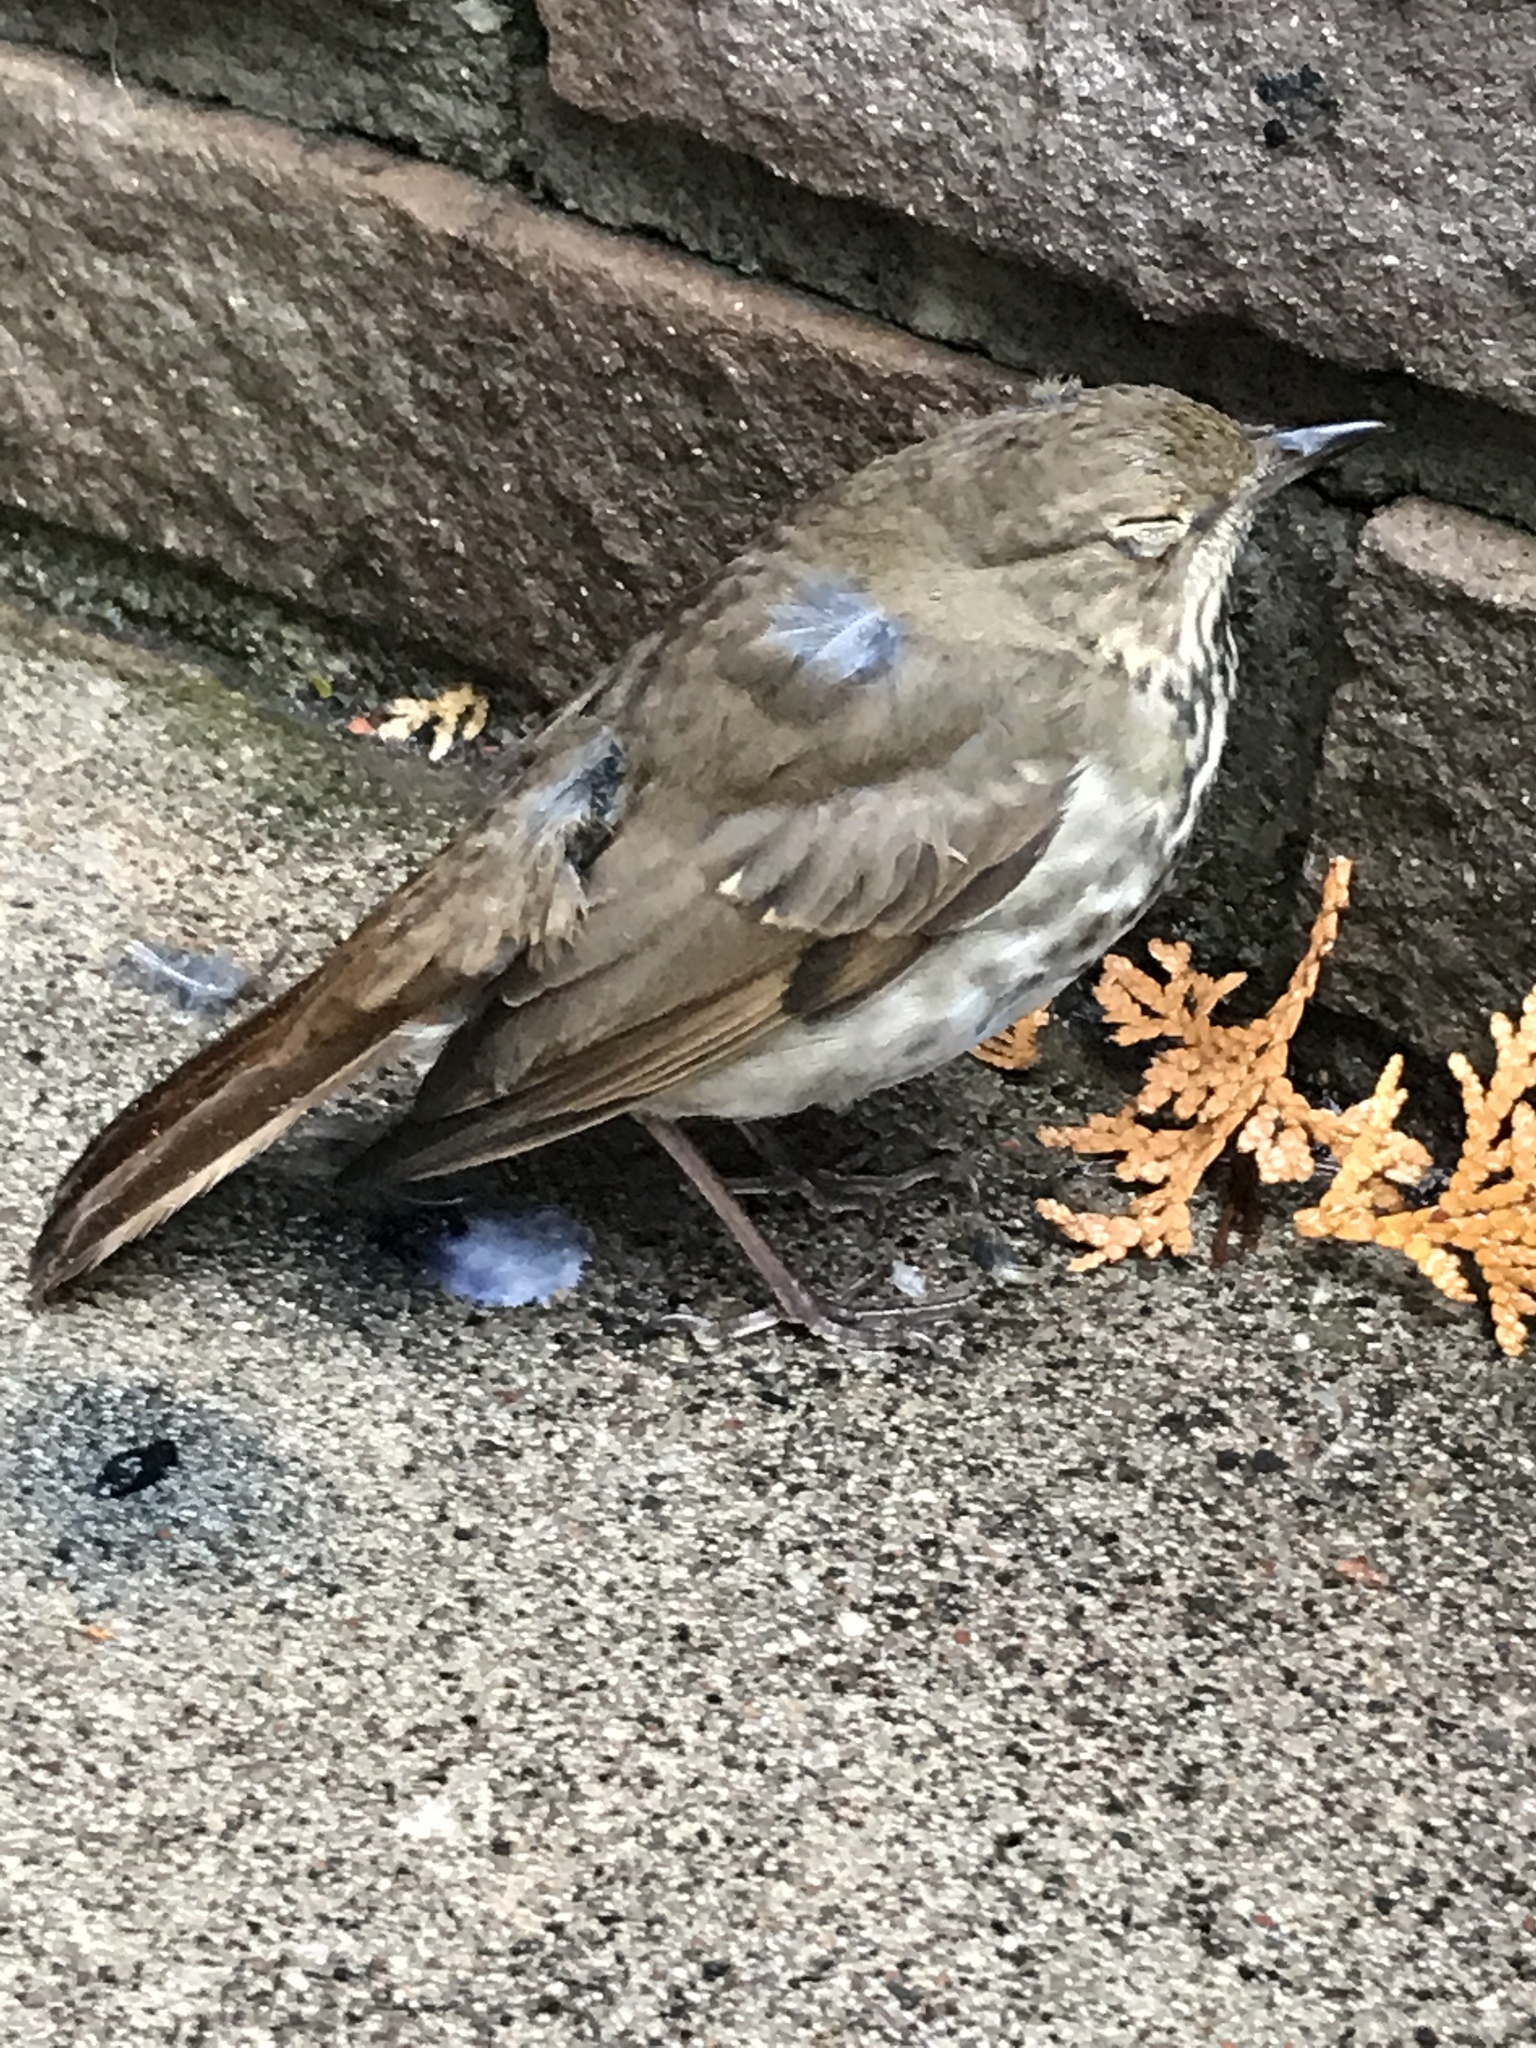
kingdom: Animalia
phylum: Chordata
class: Aves
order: Passeriformes
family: Turdidae
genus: Catharus
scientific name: Catharus guttatus
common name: Hermit thrush
